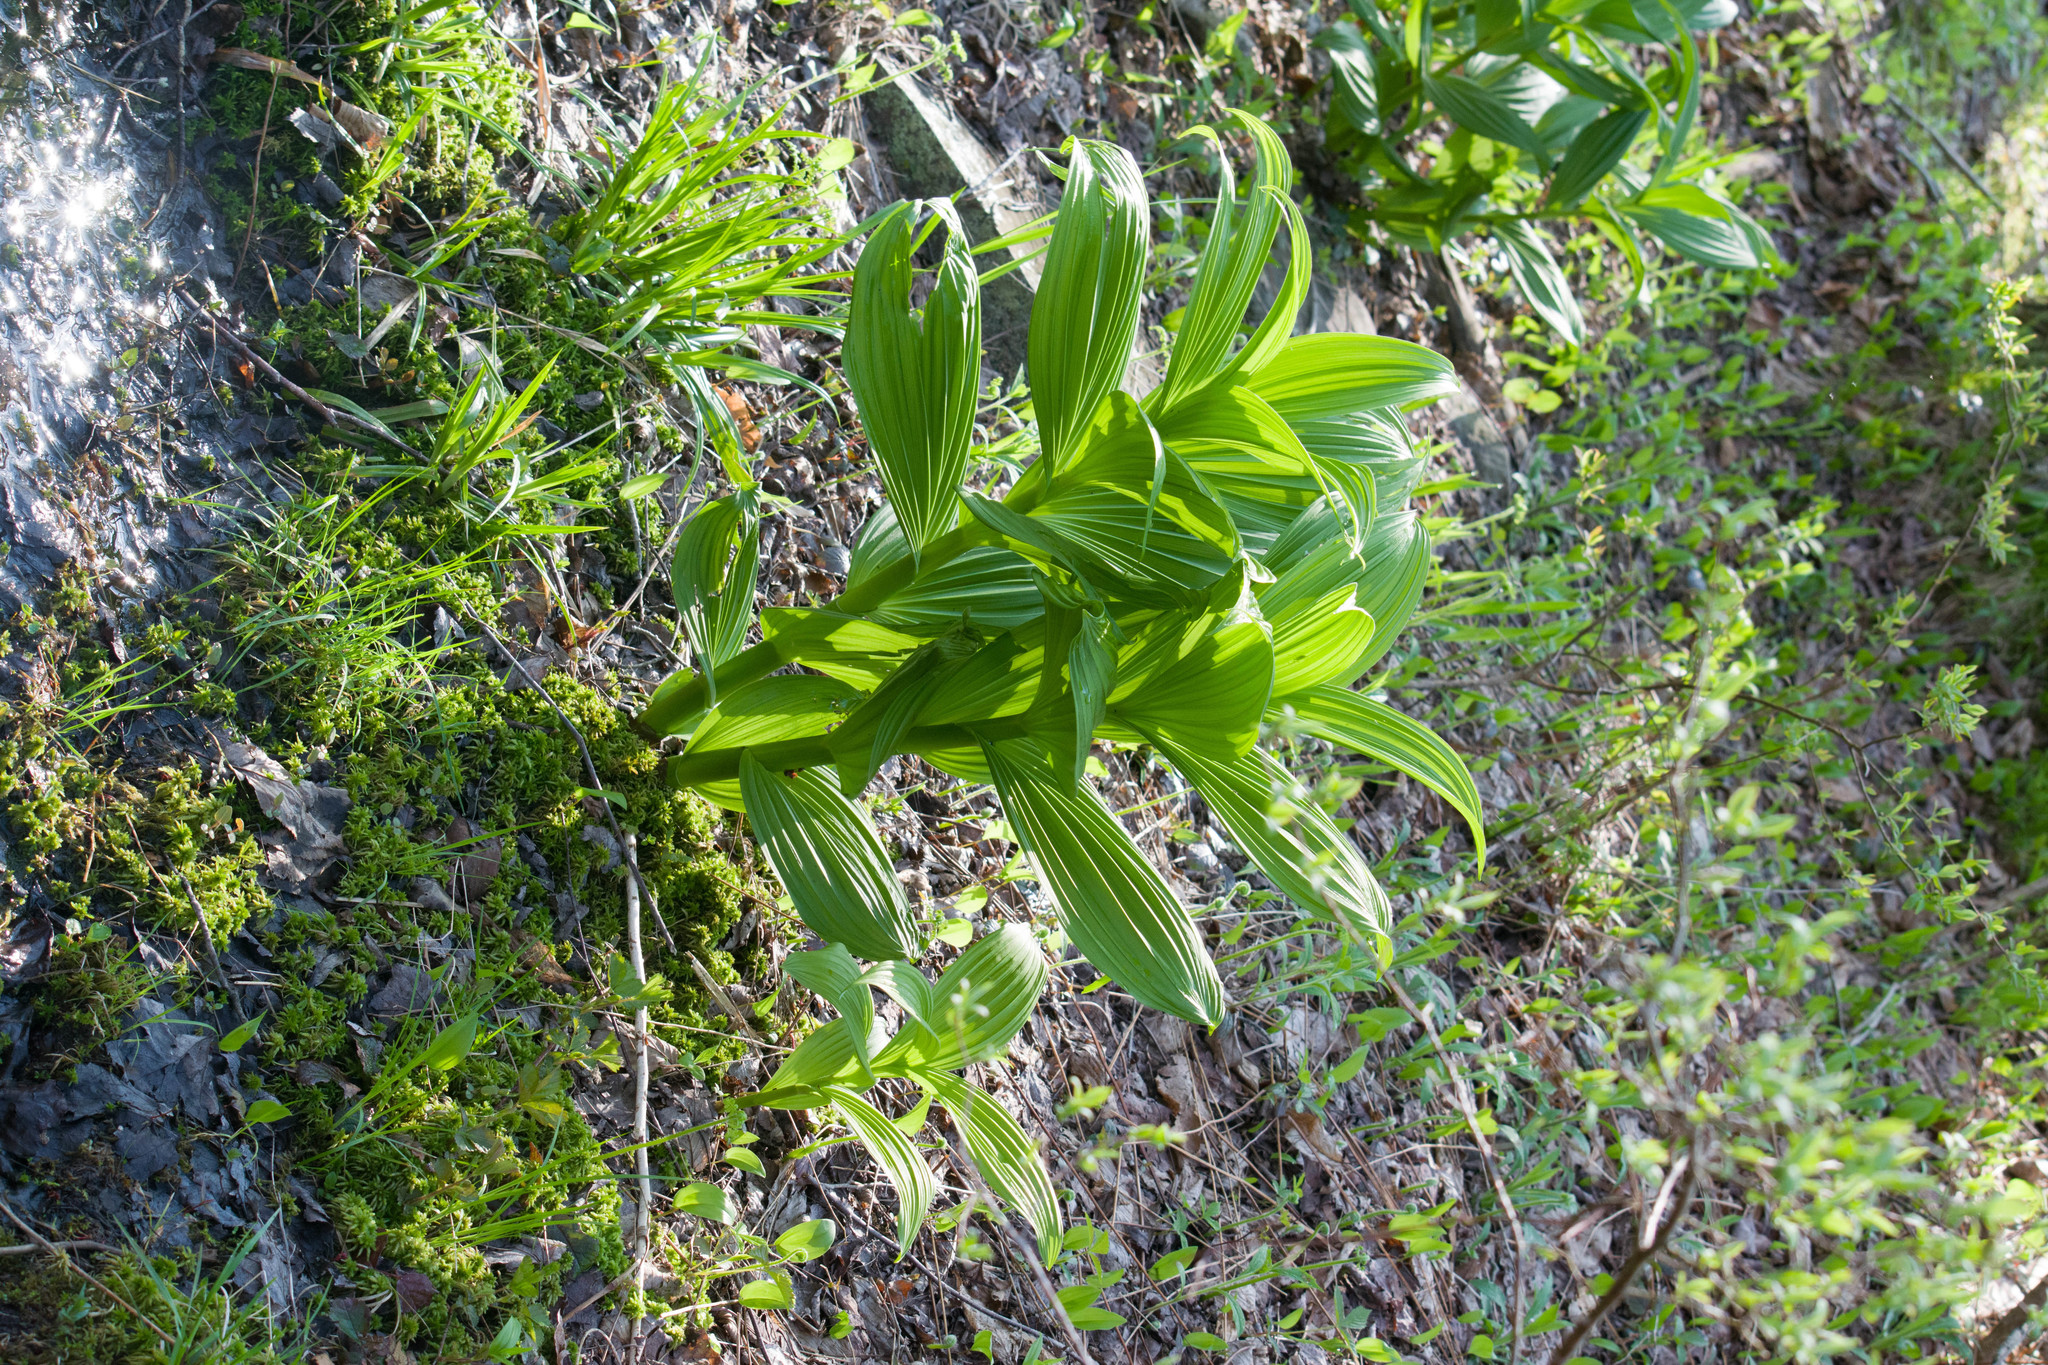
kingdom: Plantae
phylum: Tracheophyta
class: Liliopsida
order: Liliales
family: Melanthiaceae
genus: Veratrum
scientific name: Veratrum viride
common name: American false hellebore
